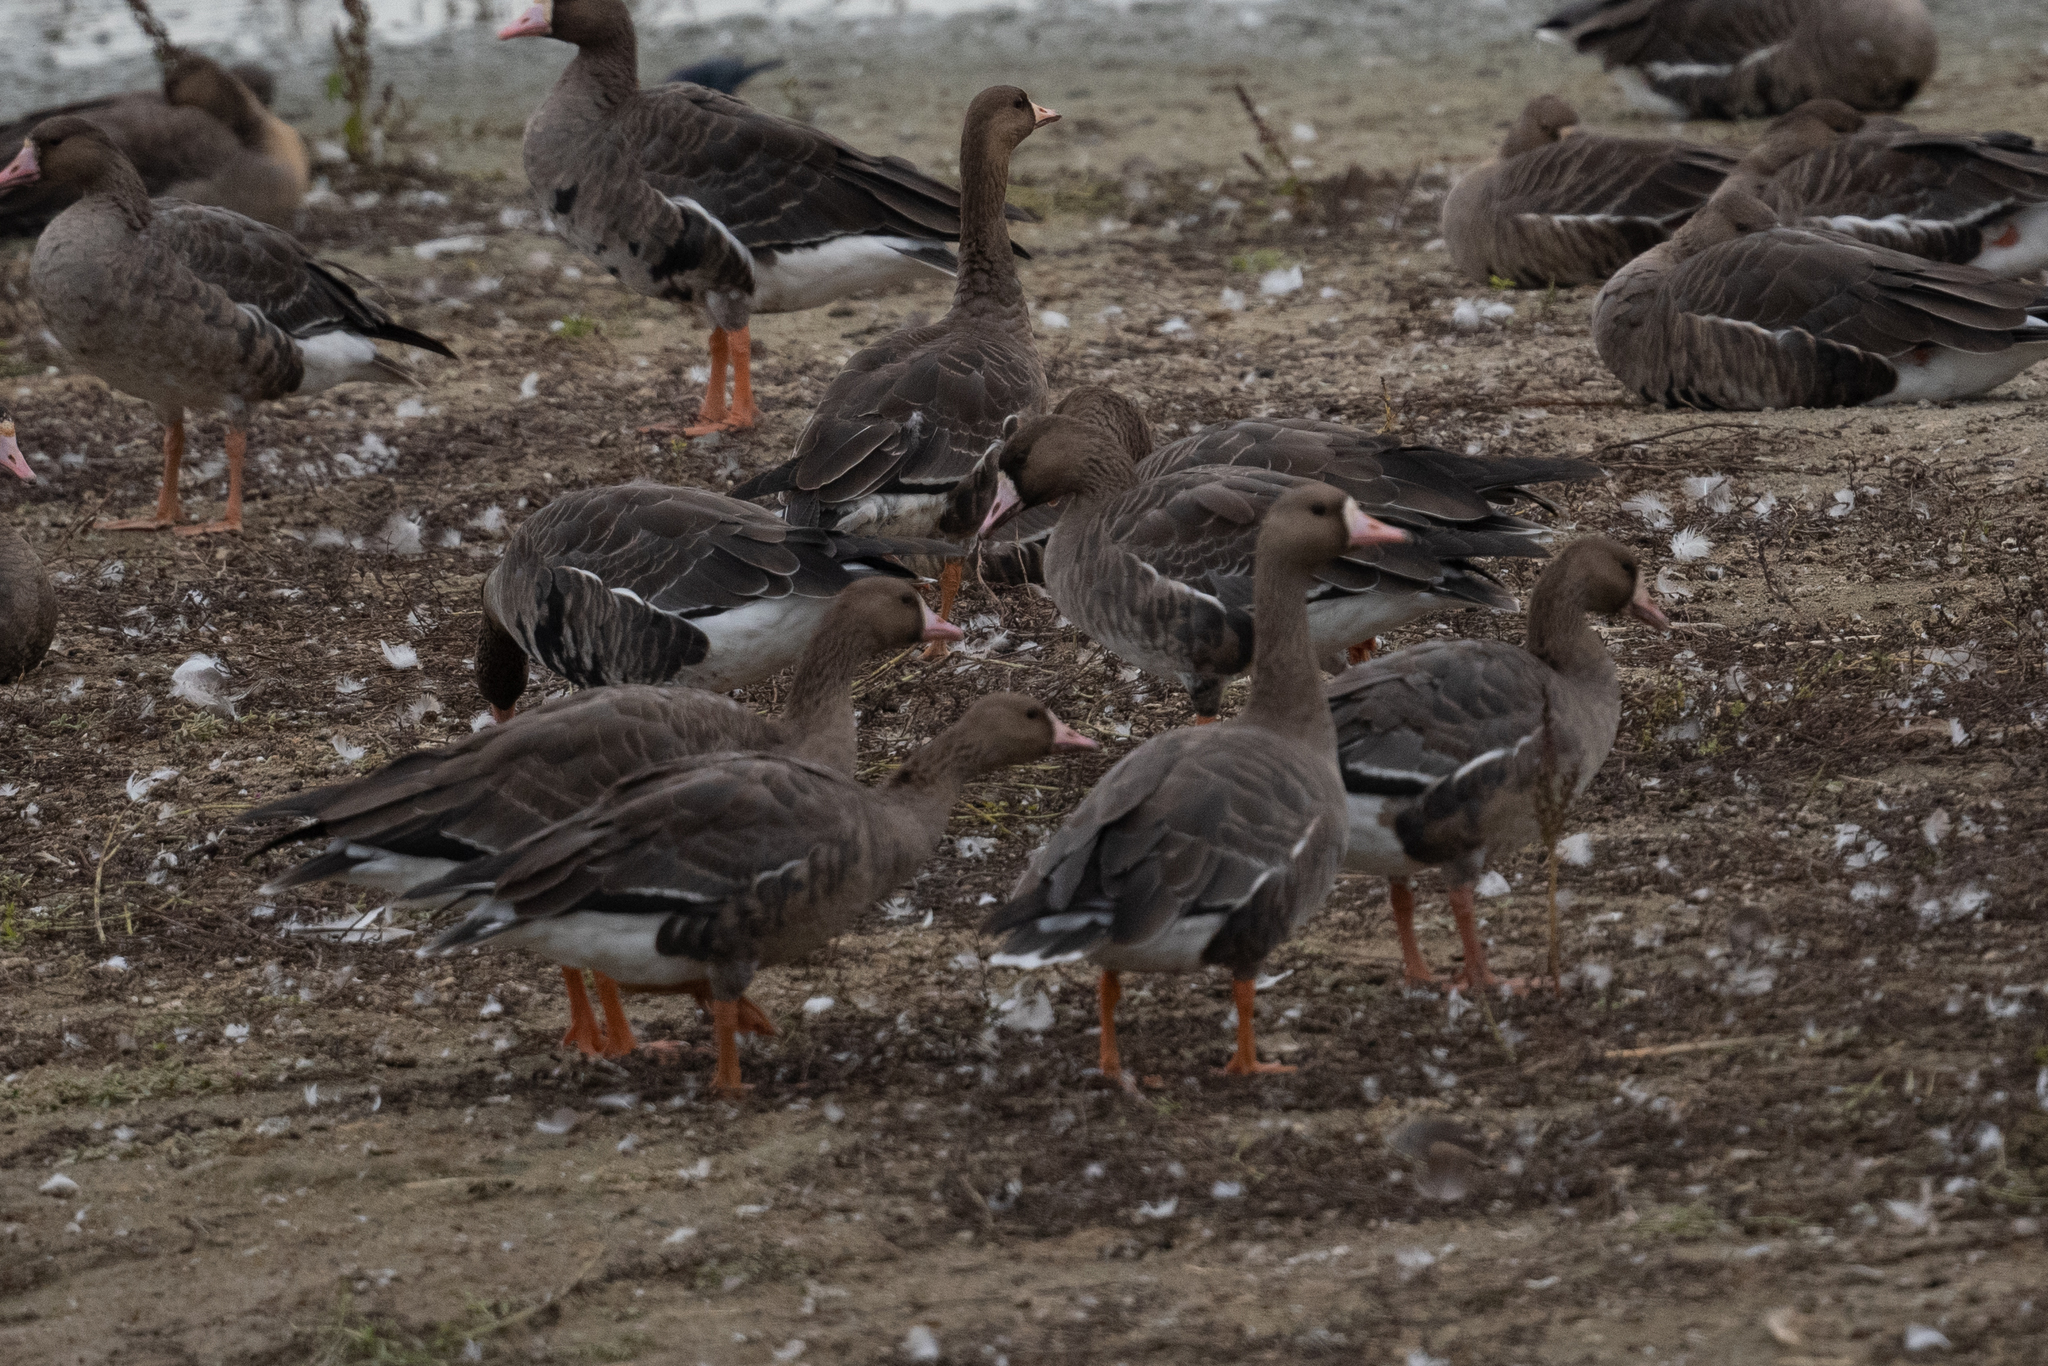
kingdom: Animalia
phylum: Chordata
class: Aves
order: Anseriformes
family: Anatidae
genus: Anser
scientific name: Anser albifrons
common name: Greater white-fronted goose
